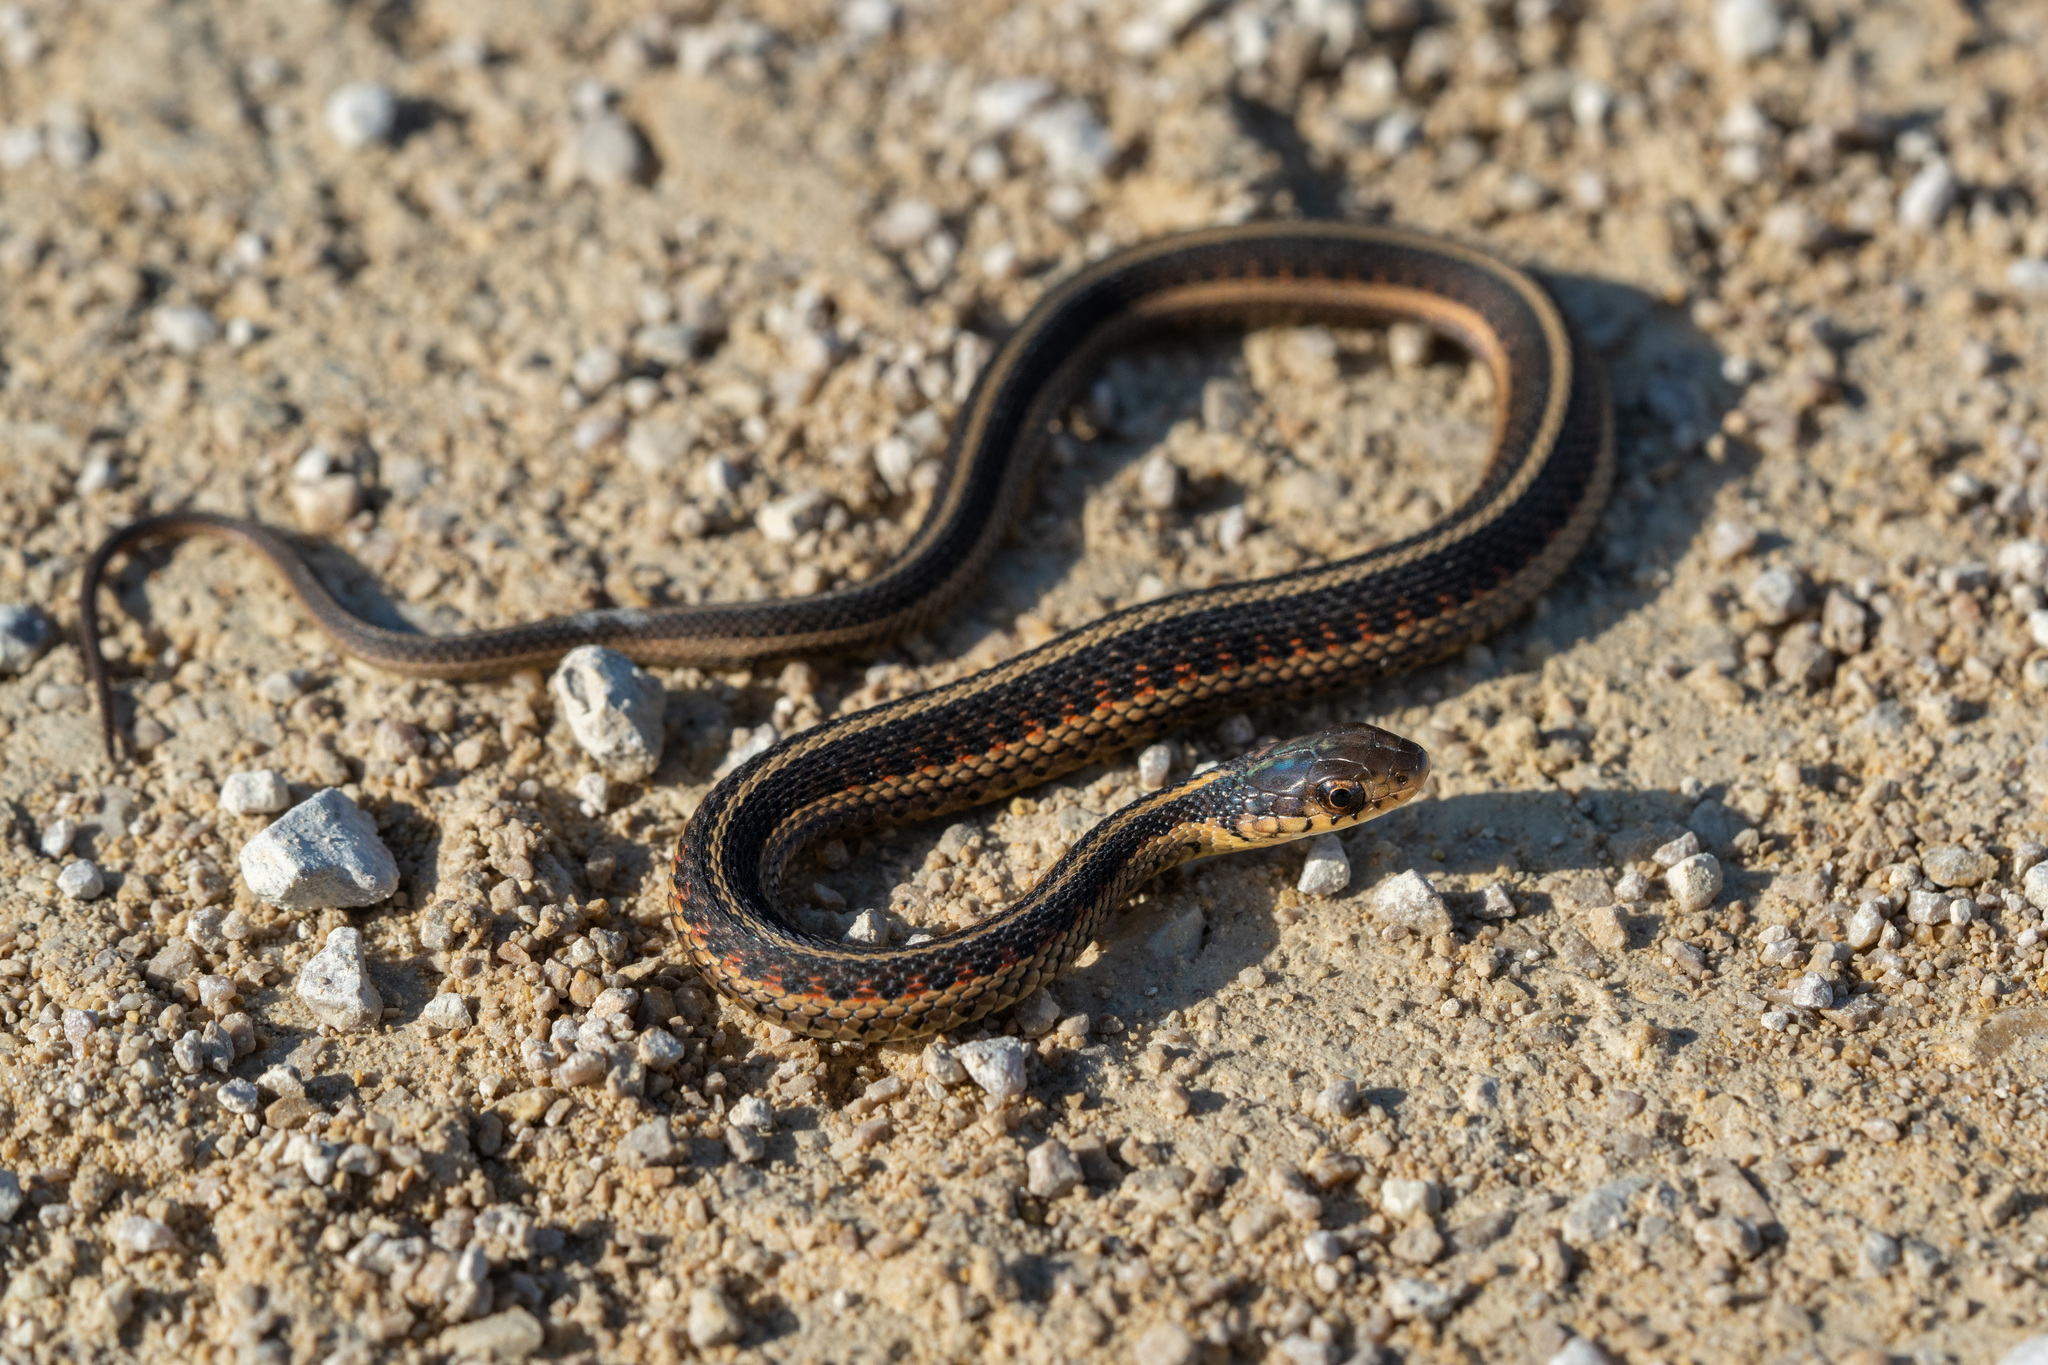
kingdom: Animalia
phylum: Chordata
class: Squamata
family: Colubridae
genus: Thamnophis
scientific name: Thamnophis sirtalis
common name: Common garter snake
